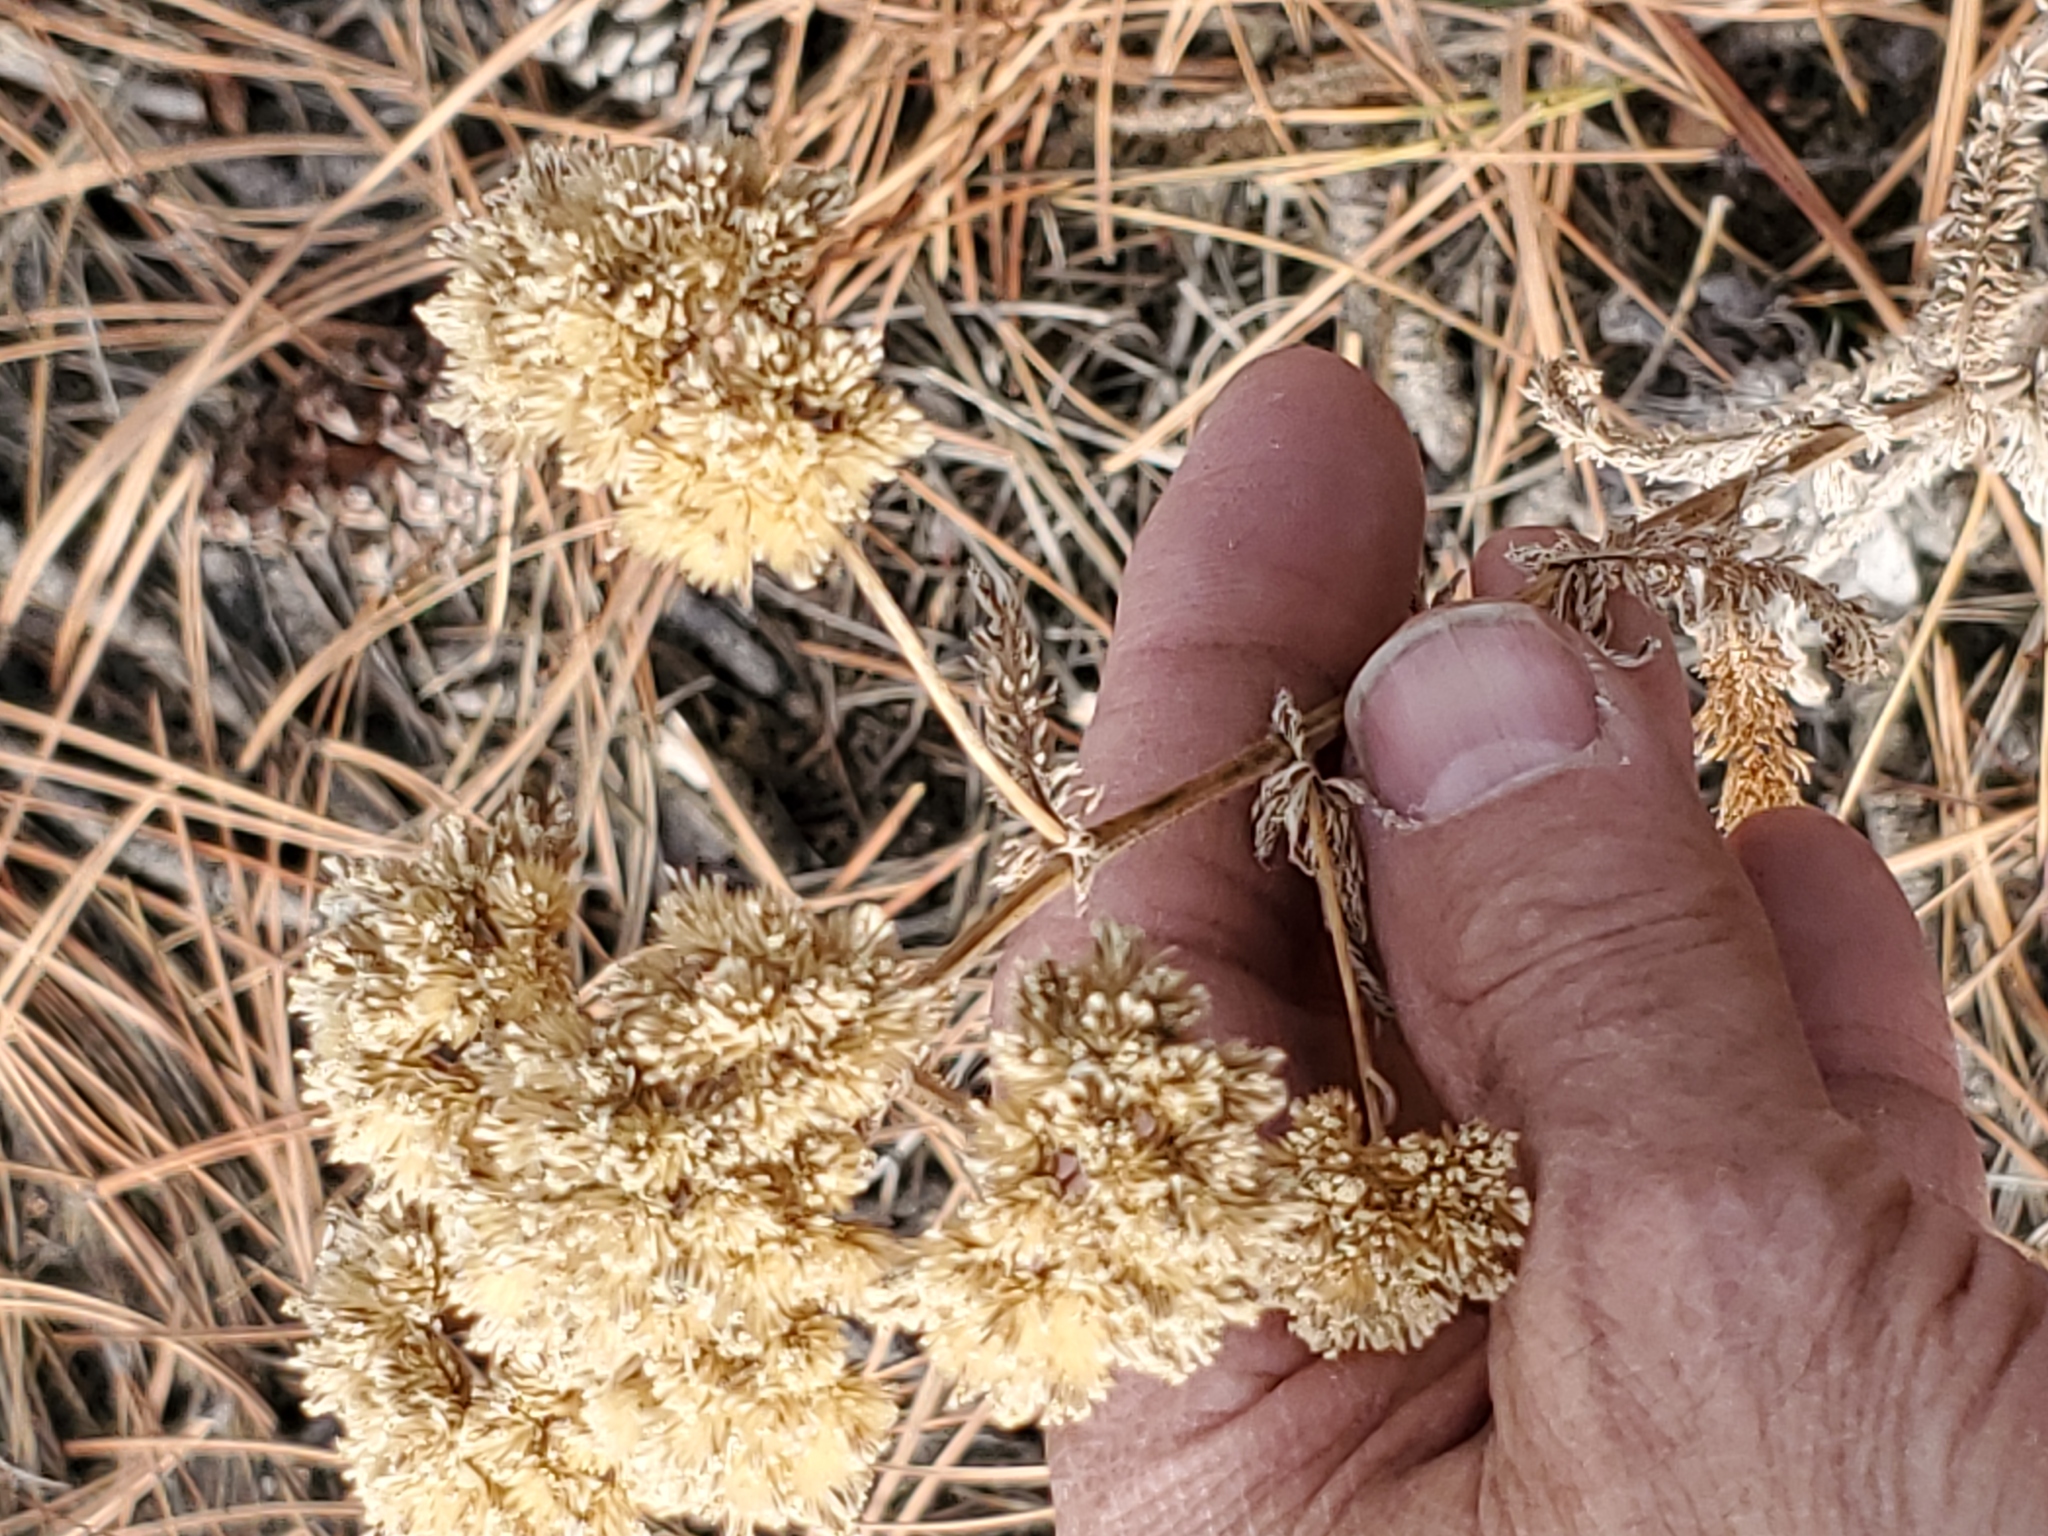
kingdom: Plantae
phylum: Tracheophyta
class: Magnoliopsida
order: Asterales
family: Asteraceae
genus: Achillea
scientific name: Achillea millefolium
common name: Yarrow
